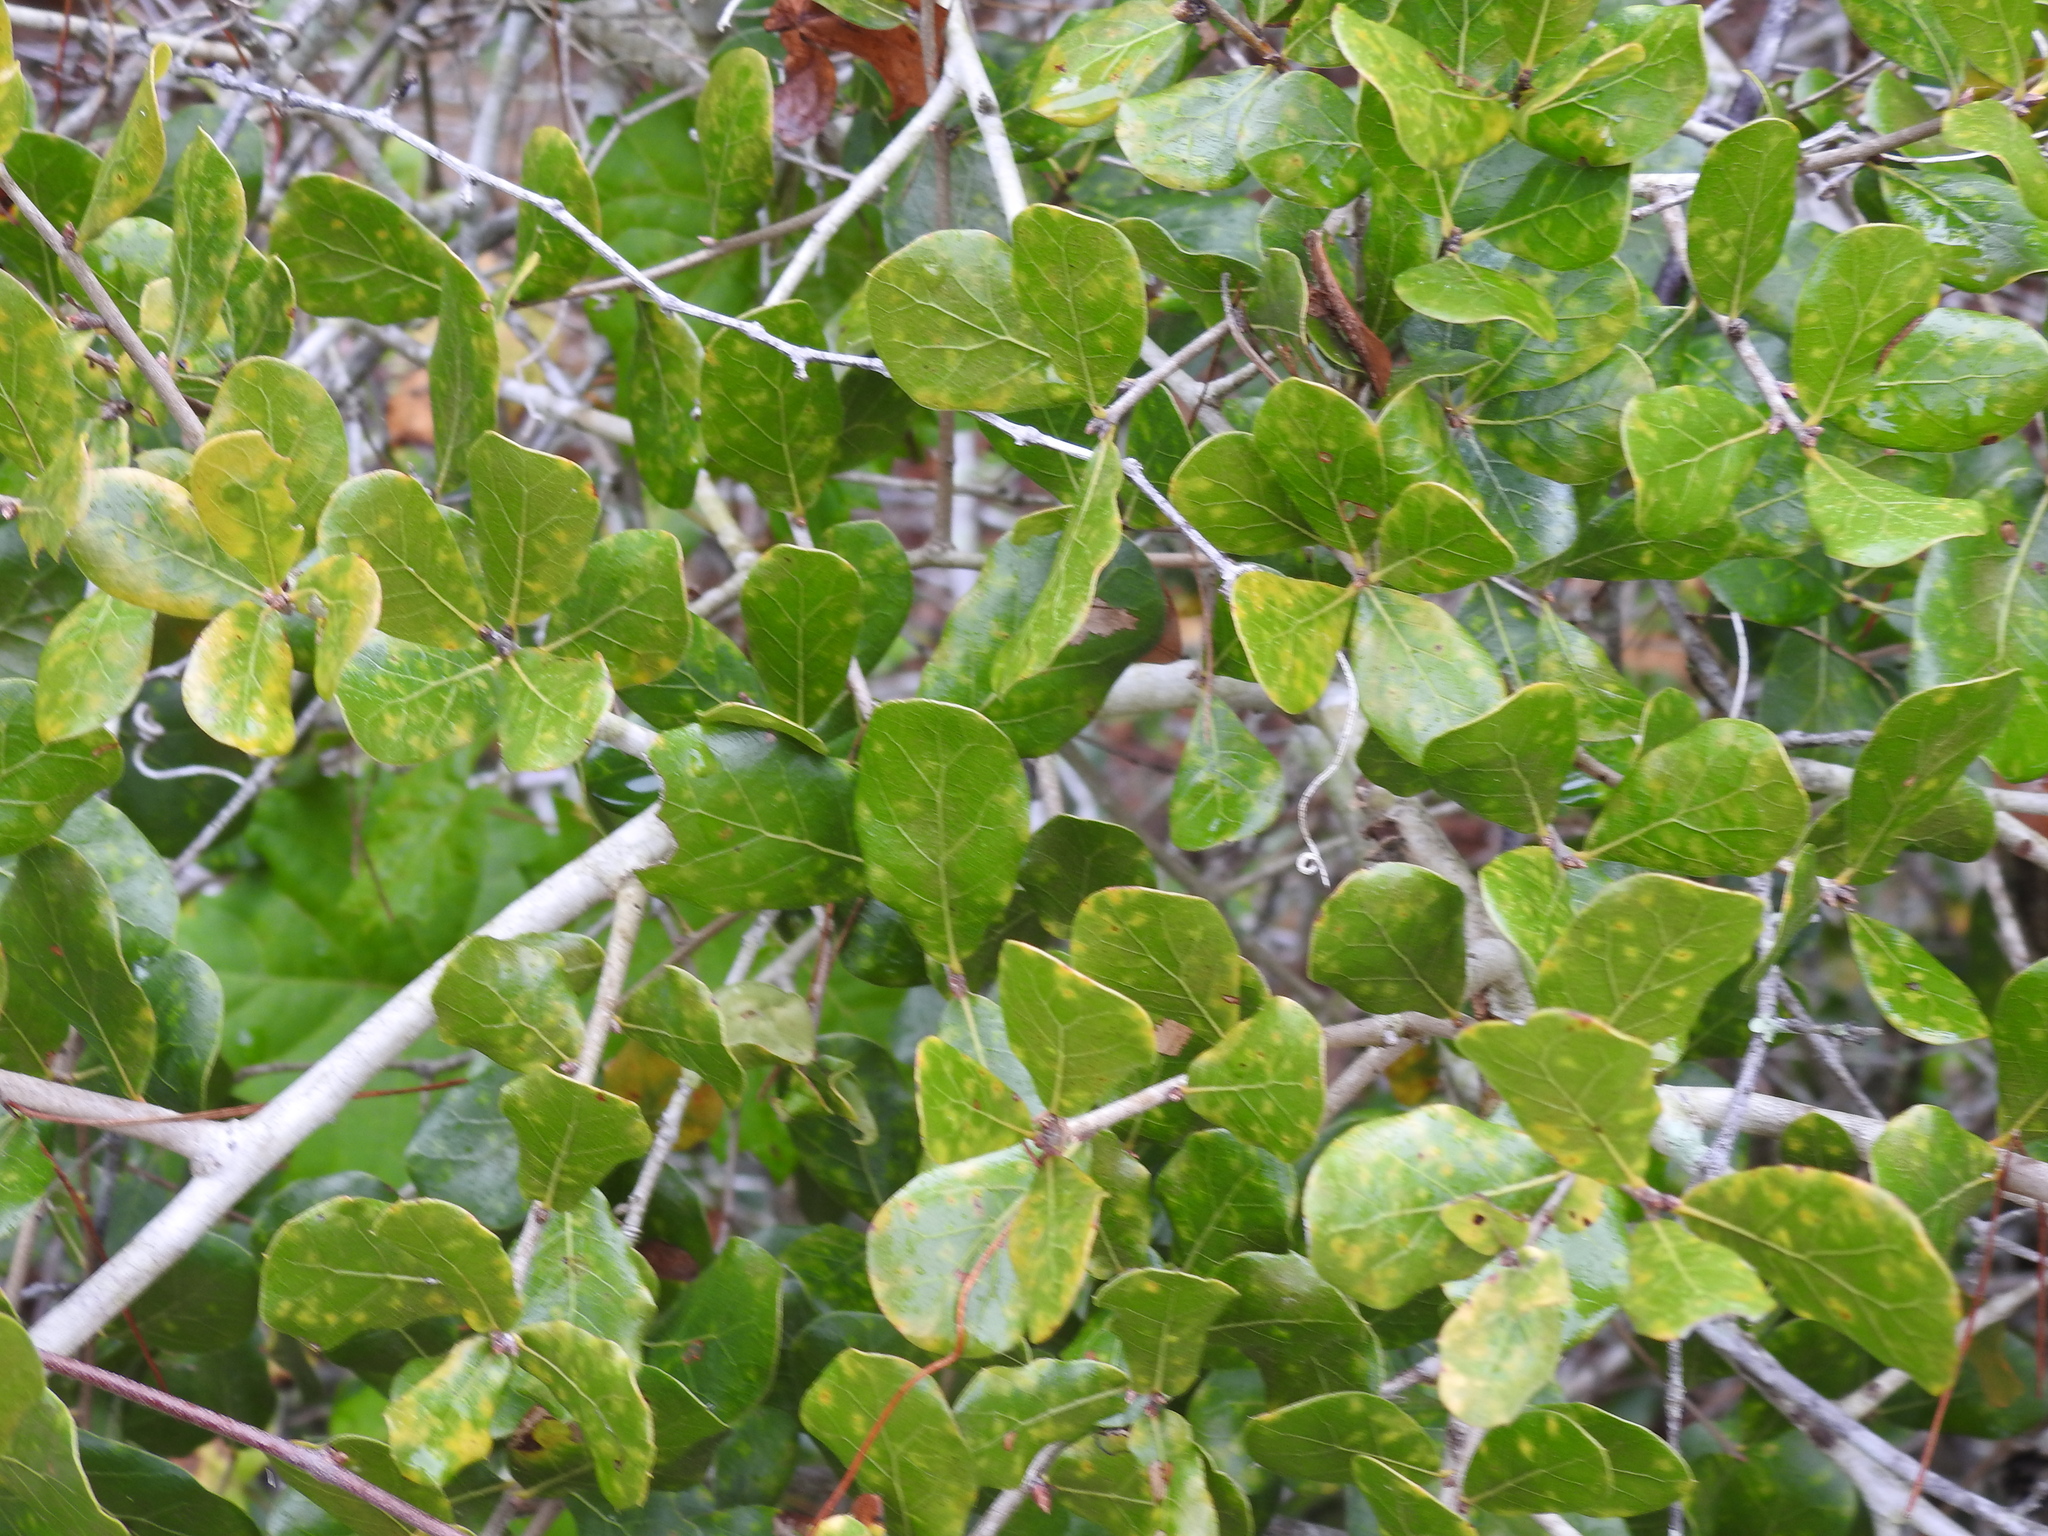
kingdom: Plantae
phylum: Tracheophyta
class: Magnoliopsida
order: Fagales
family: Fagaceae
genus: Quercus
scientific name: Quercus myrtifolia
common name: Myrtle oak
